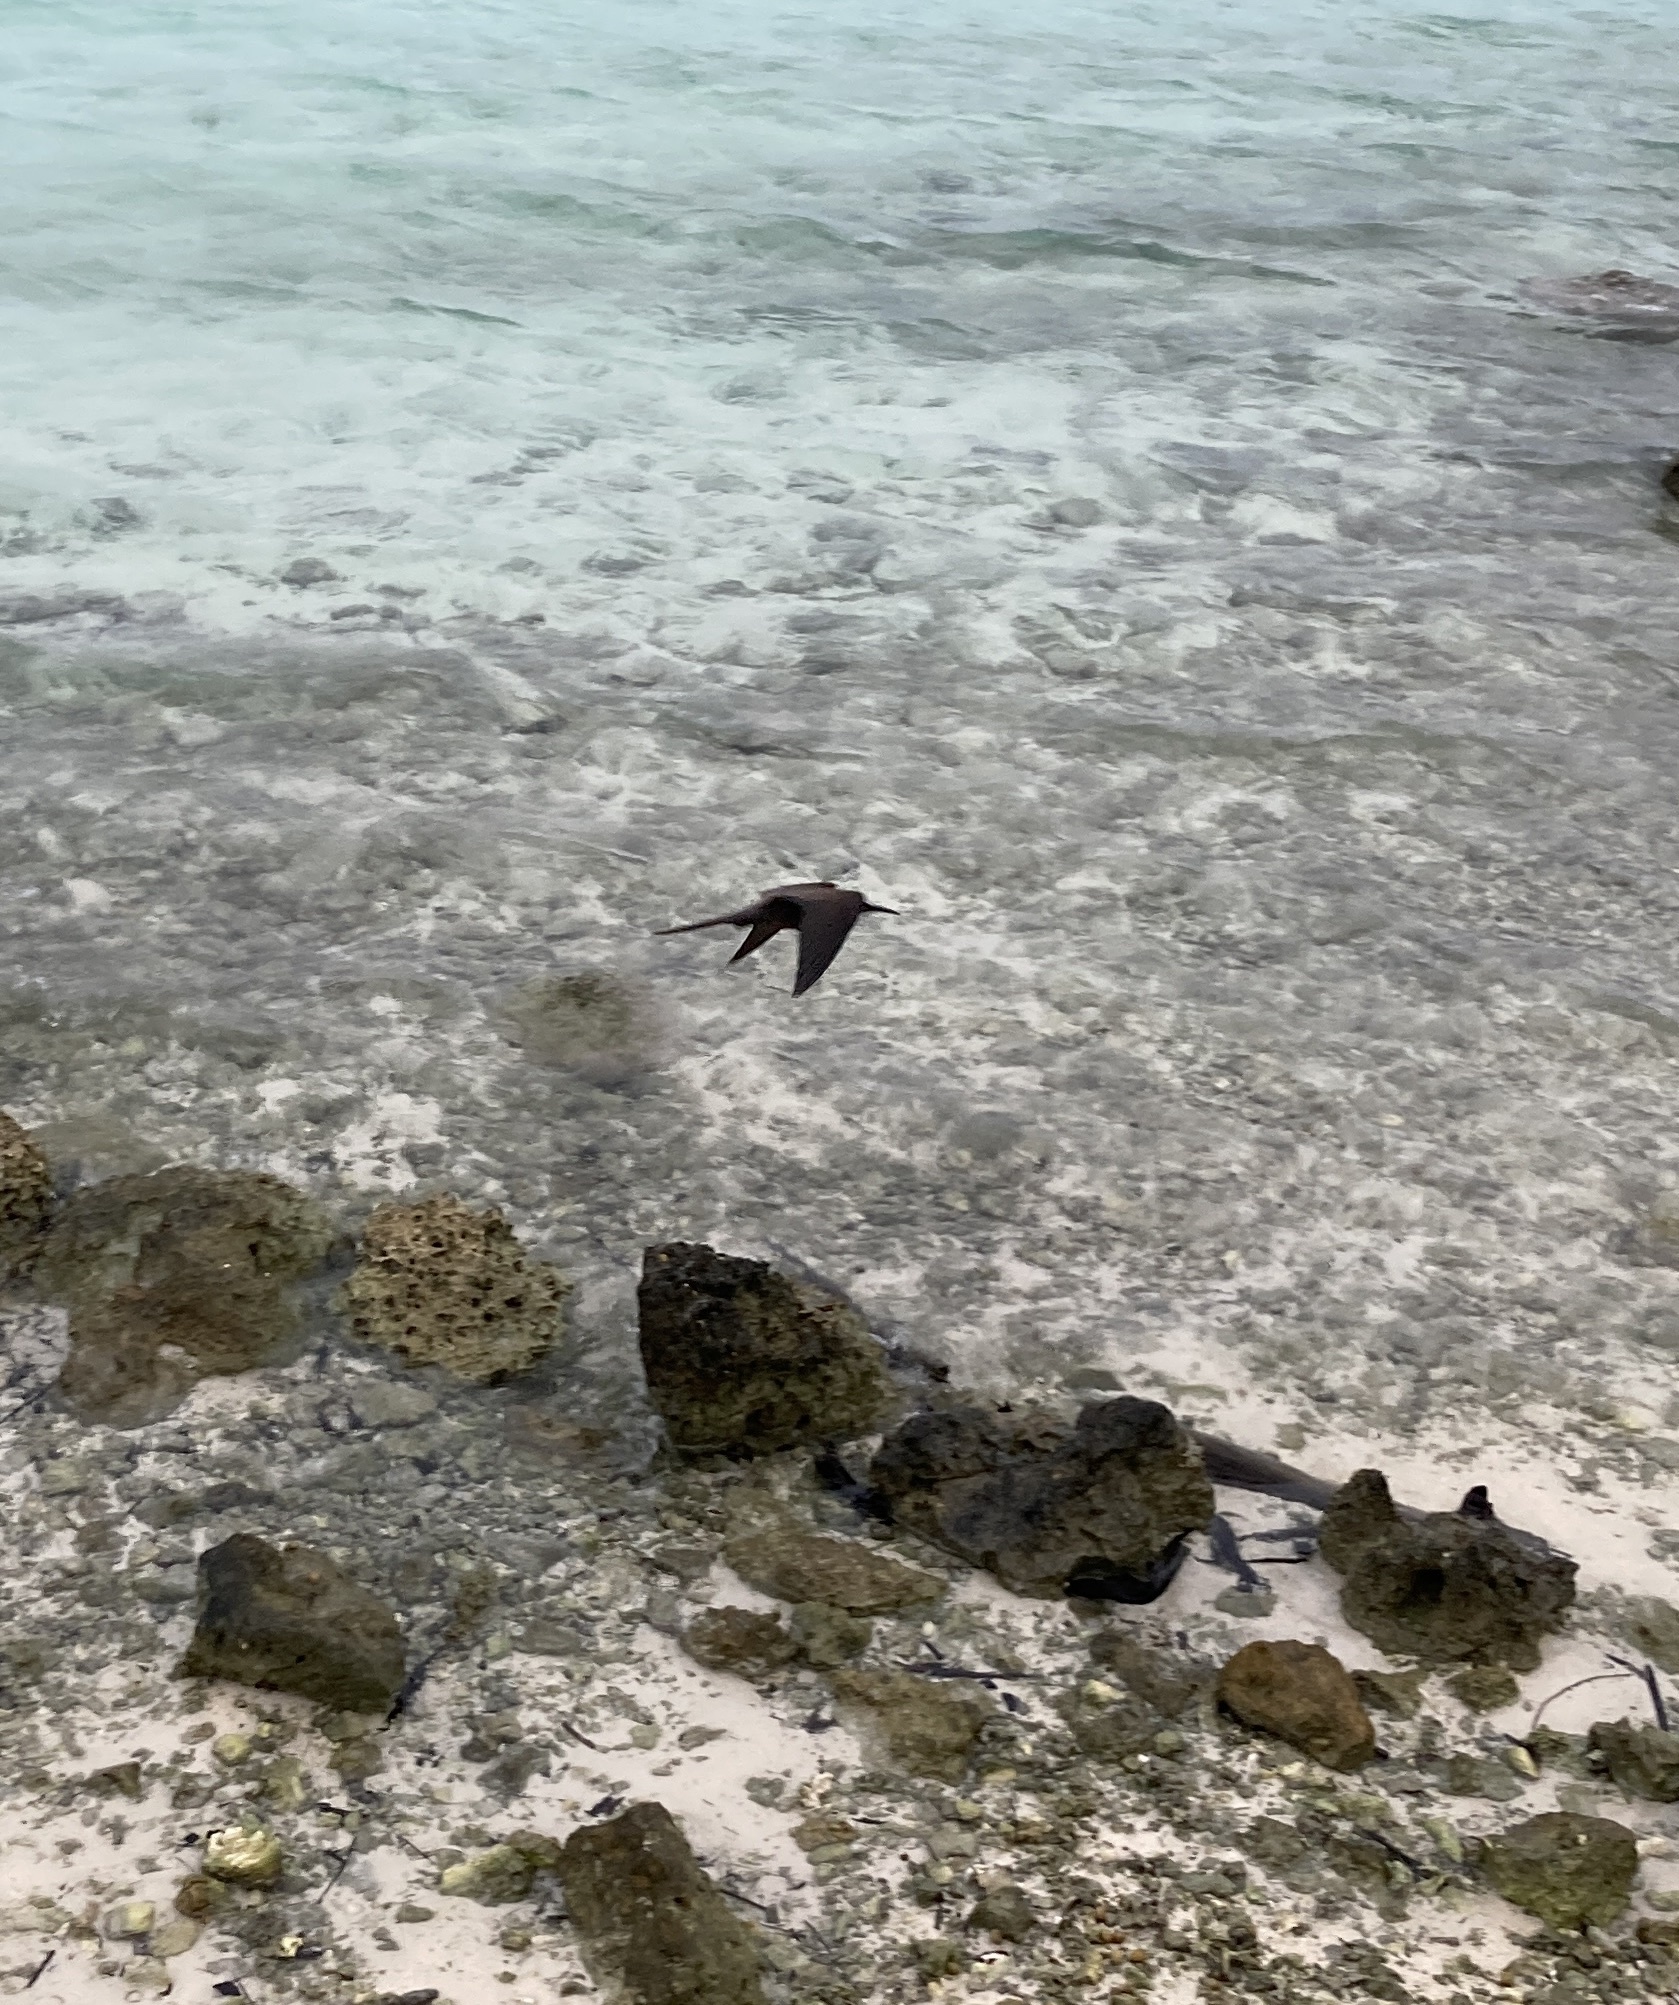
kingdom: Animalia
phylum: Chordata
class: Aves
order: Charadriiformes
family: Laridae
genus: Anous
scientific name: Anous stolidus
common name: Brown noddy
